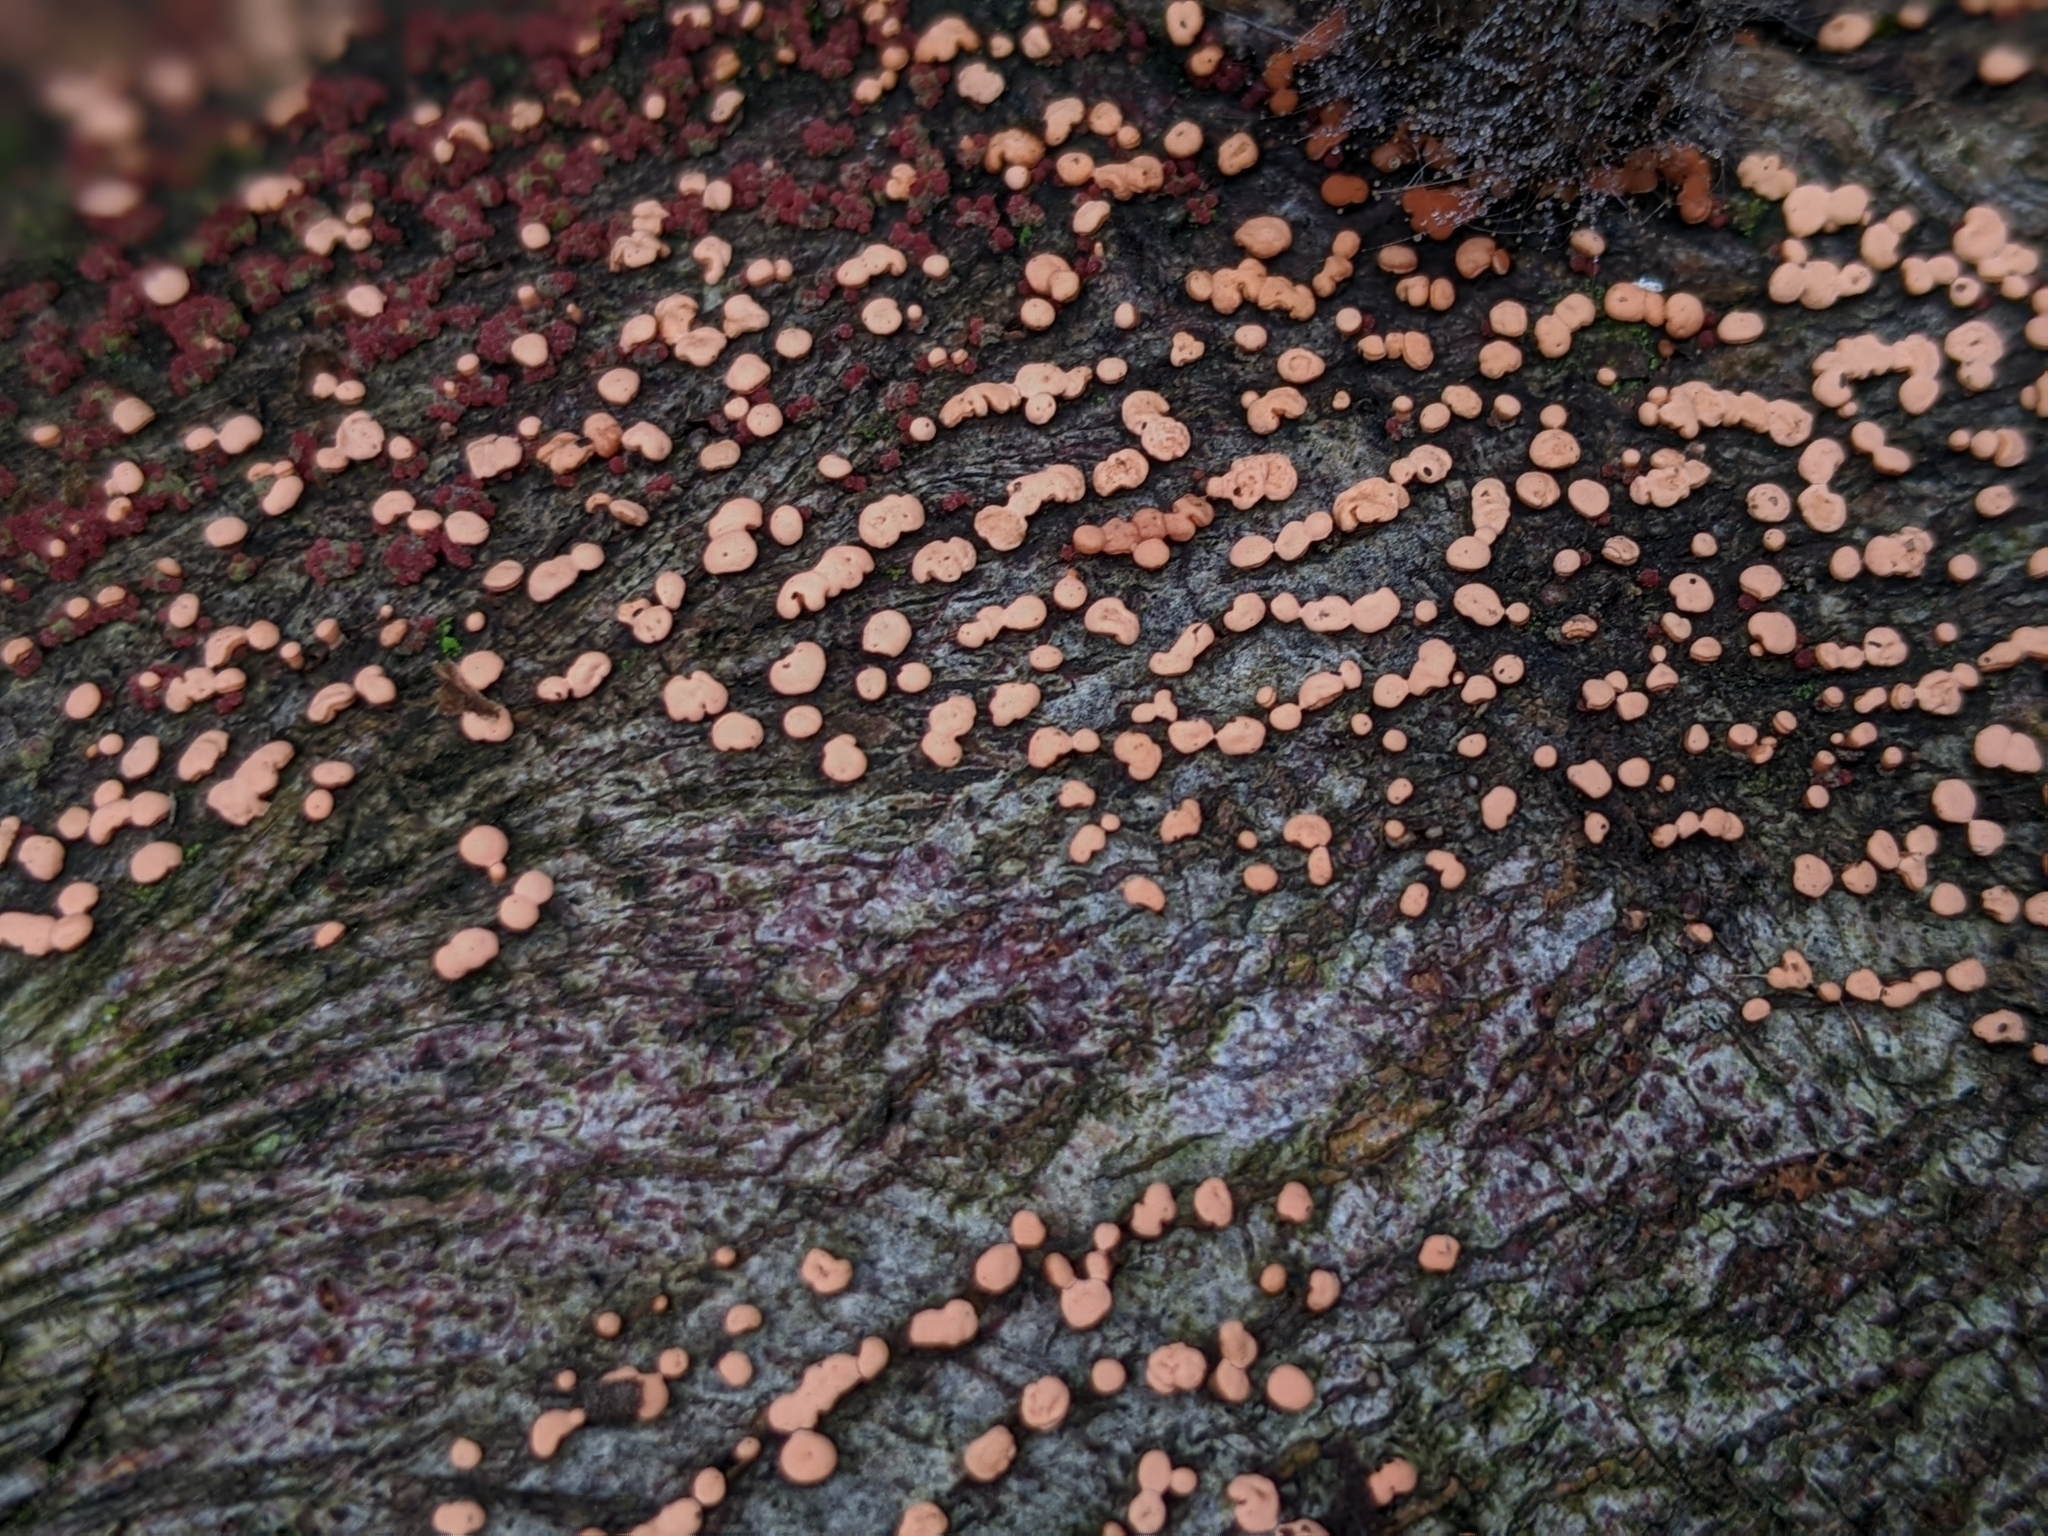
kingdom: Fungi
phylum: Ascomycota
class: Sordariomycetes
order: Hypocreales
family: Nectriaceae
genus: Nectria
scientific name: Nectria cinnabarina
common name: Coral spot
